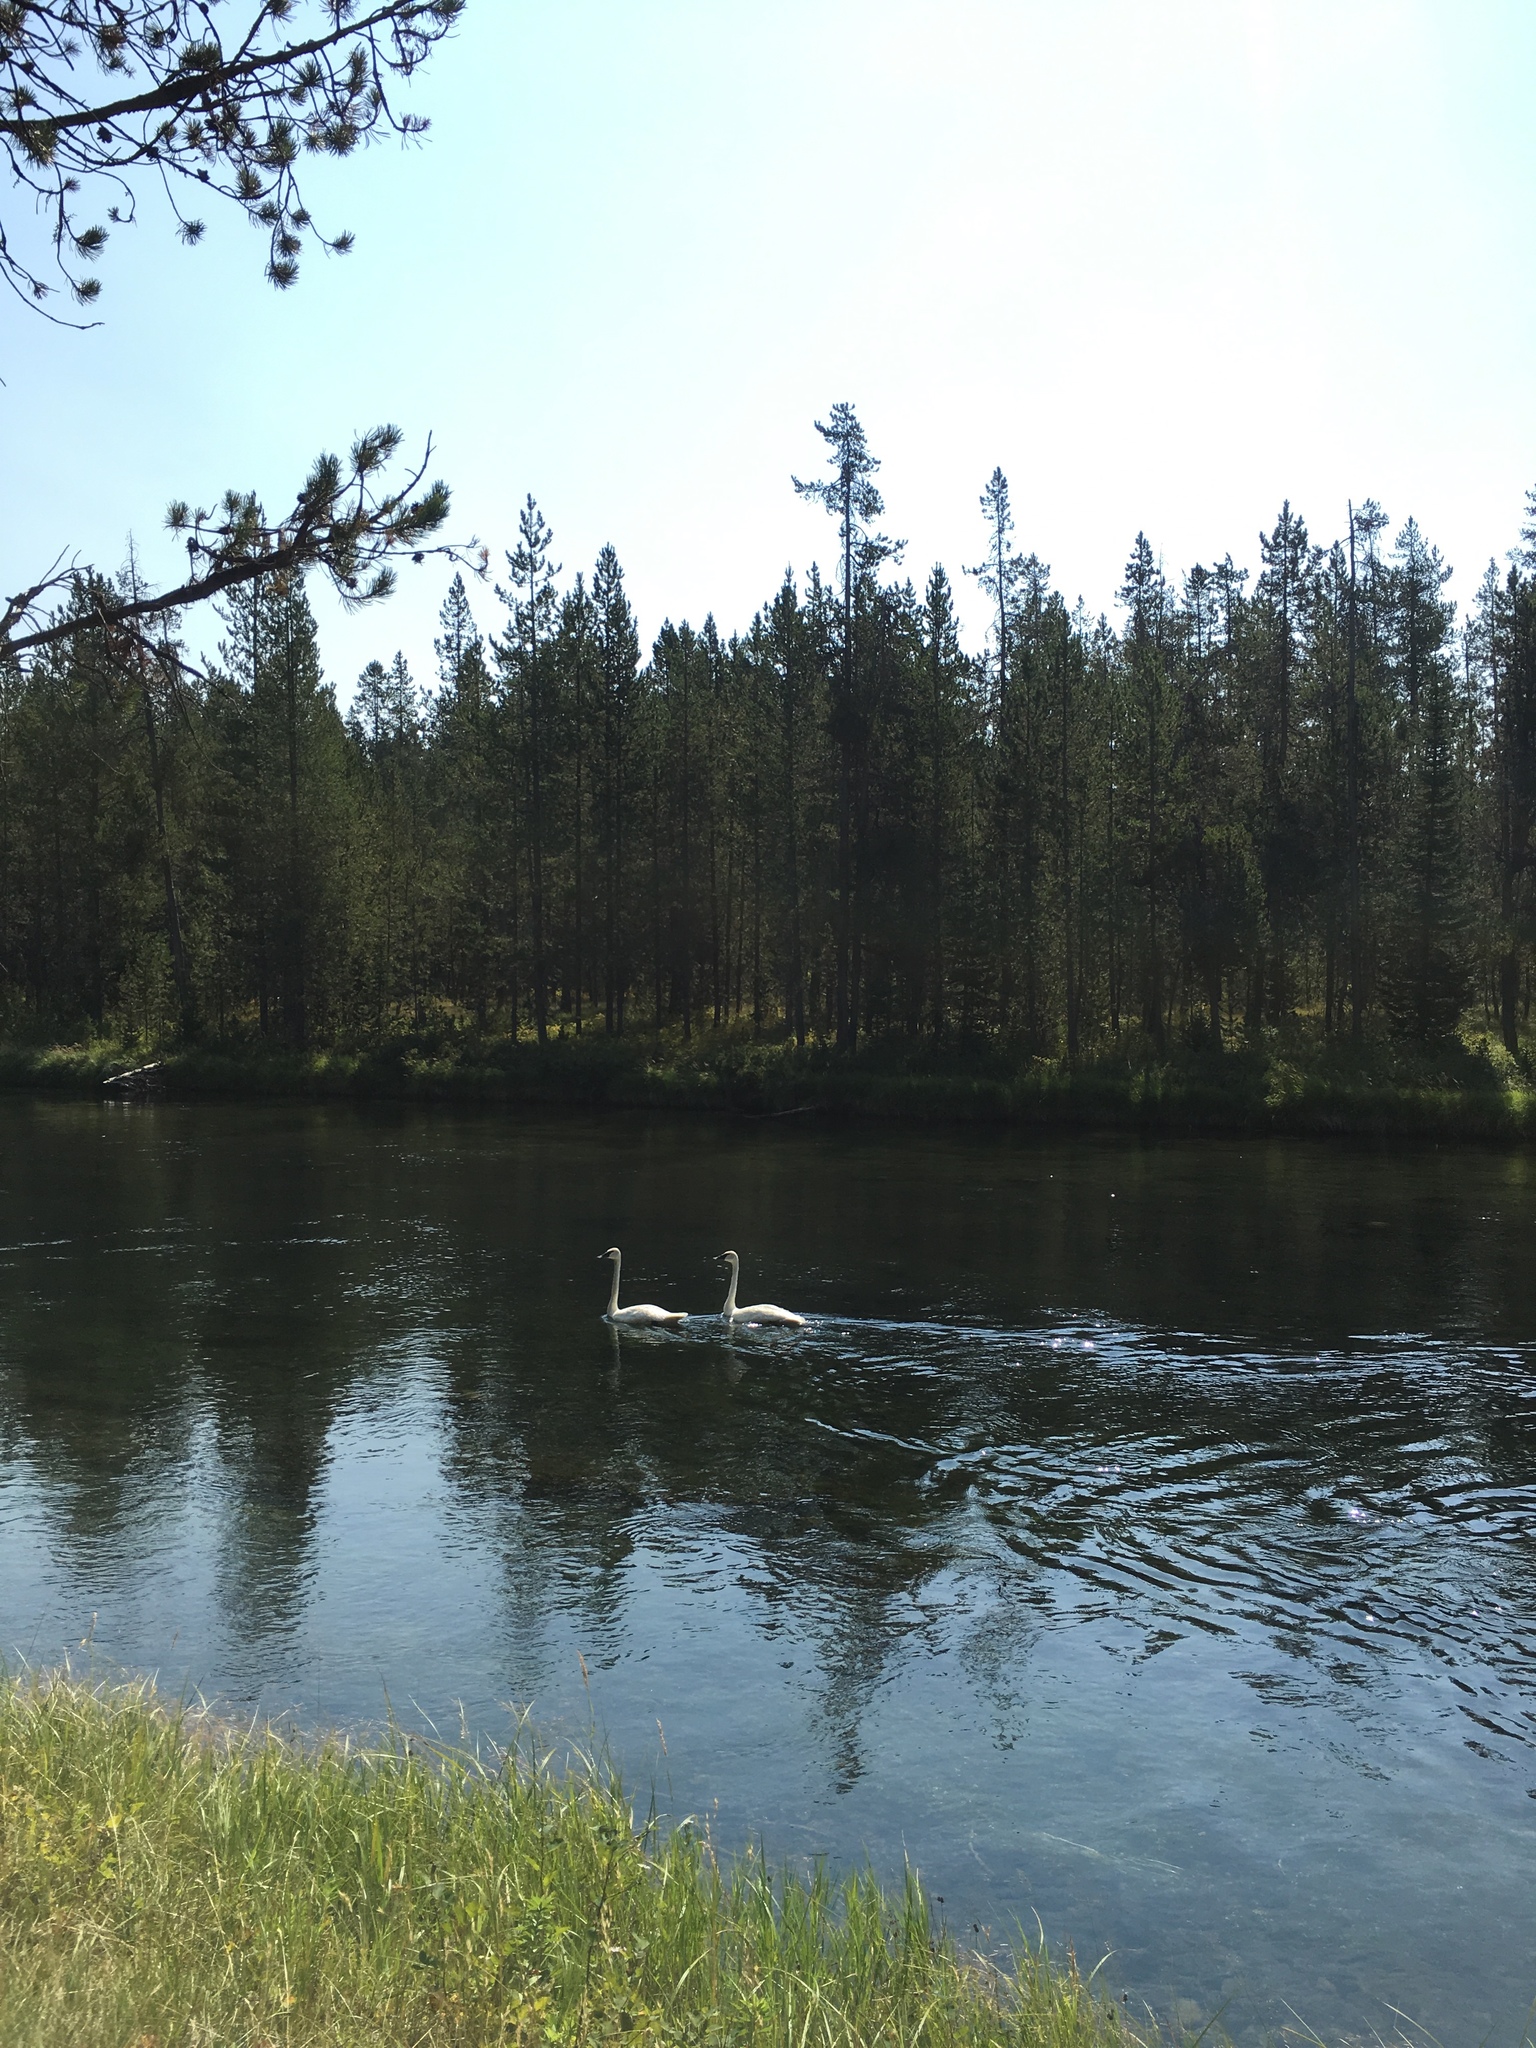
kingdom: Animalia
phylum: Chordata
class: Aves
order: Anseriformes
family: Anatidae
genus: Cygnus
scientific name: Cygnus buccinator
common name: Trumpeter swan
